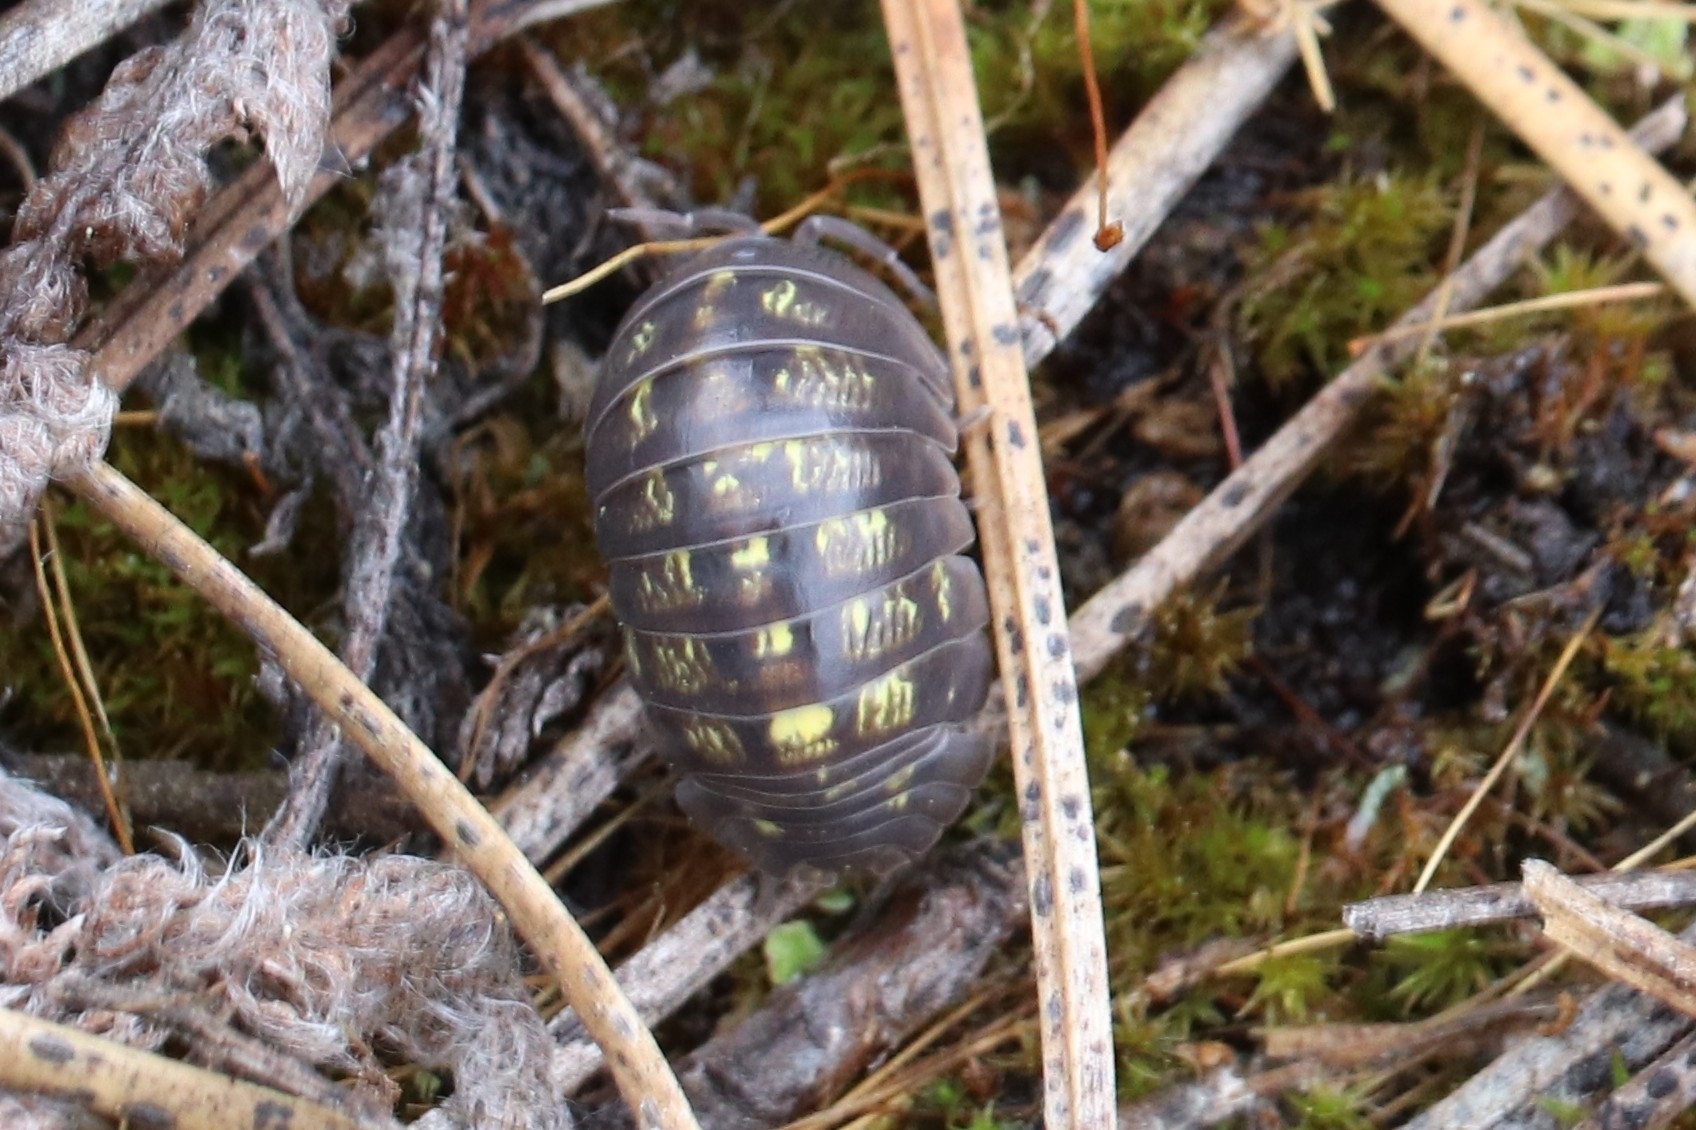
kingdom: Animalia
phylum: Arthropoda
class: Malacostraca
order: Isopoda
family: Armadillidiidae
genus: Armadillidium
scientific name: Armadillidium vulgare
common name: Common pill woodlouse
